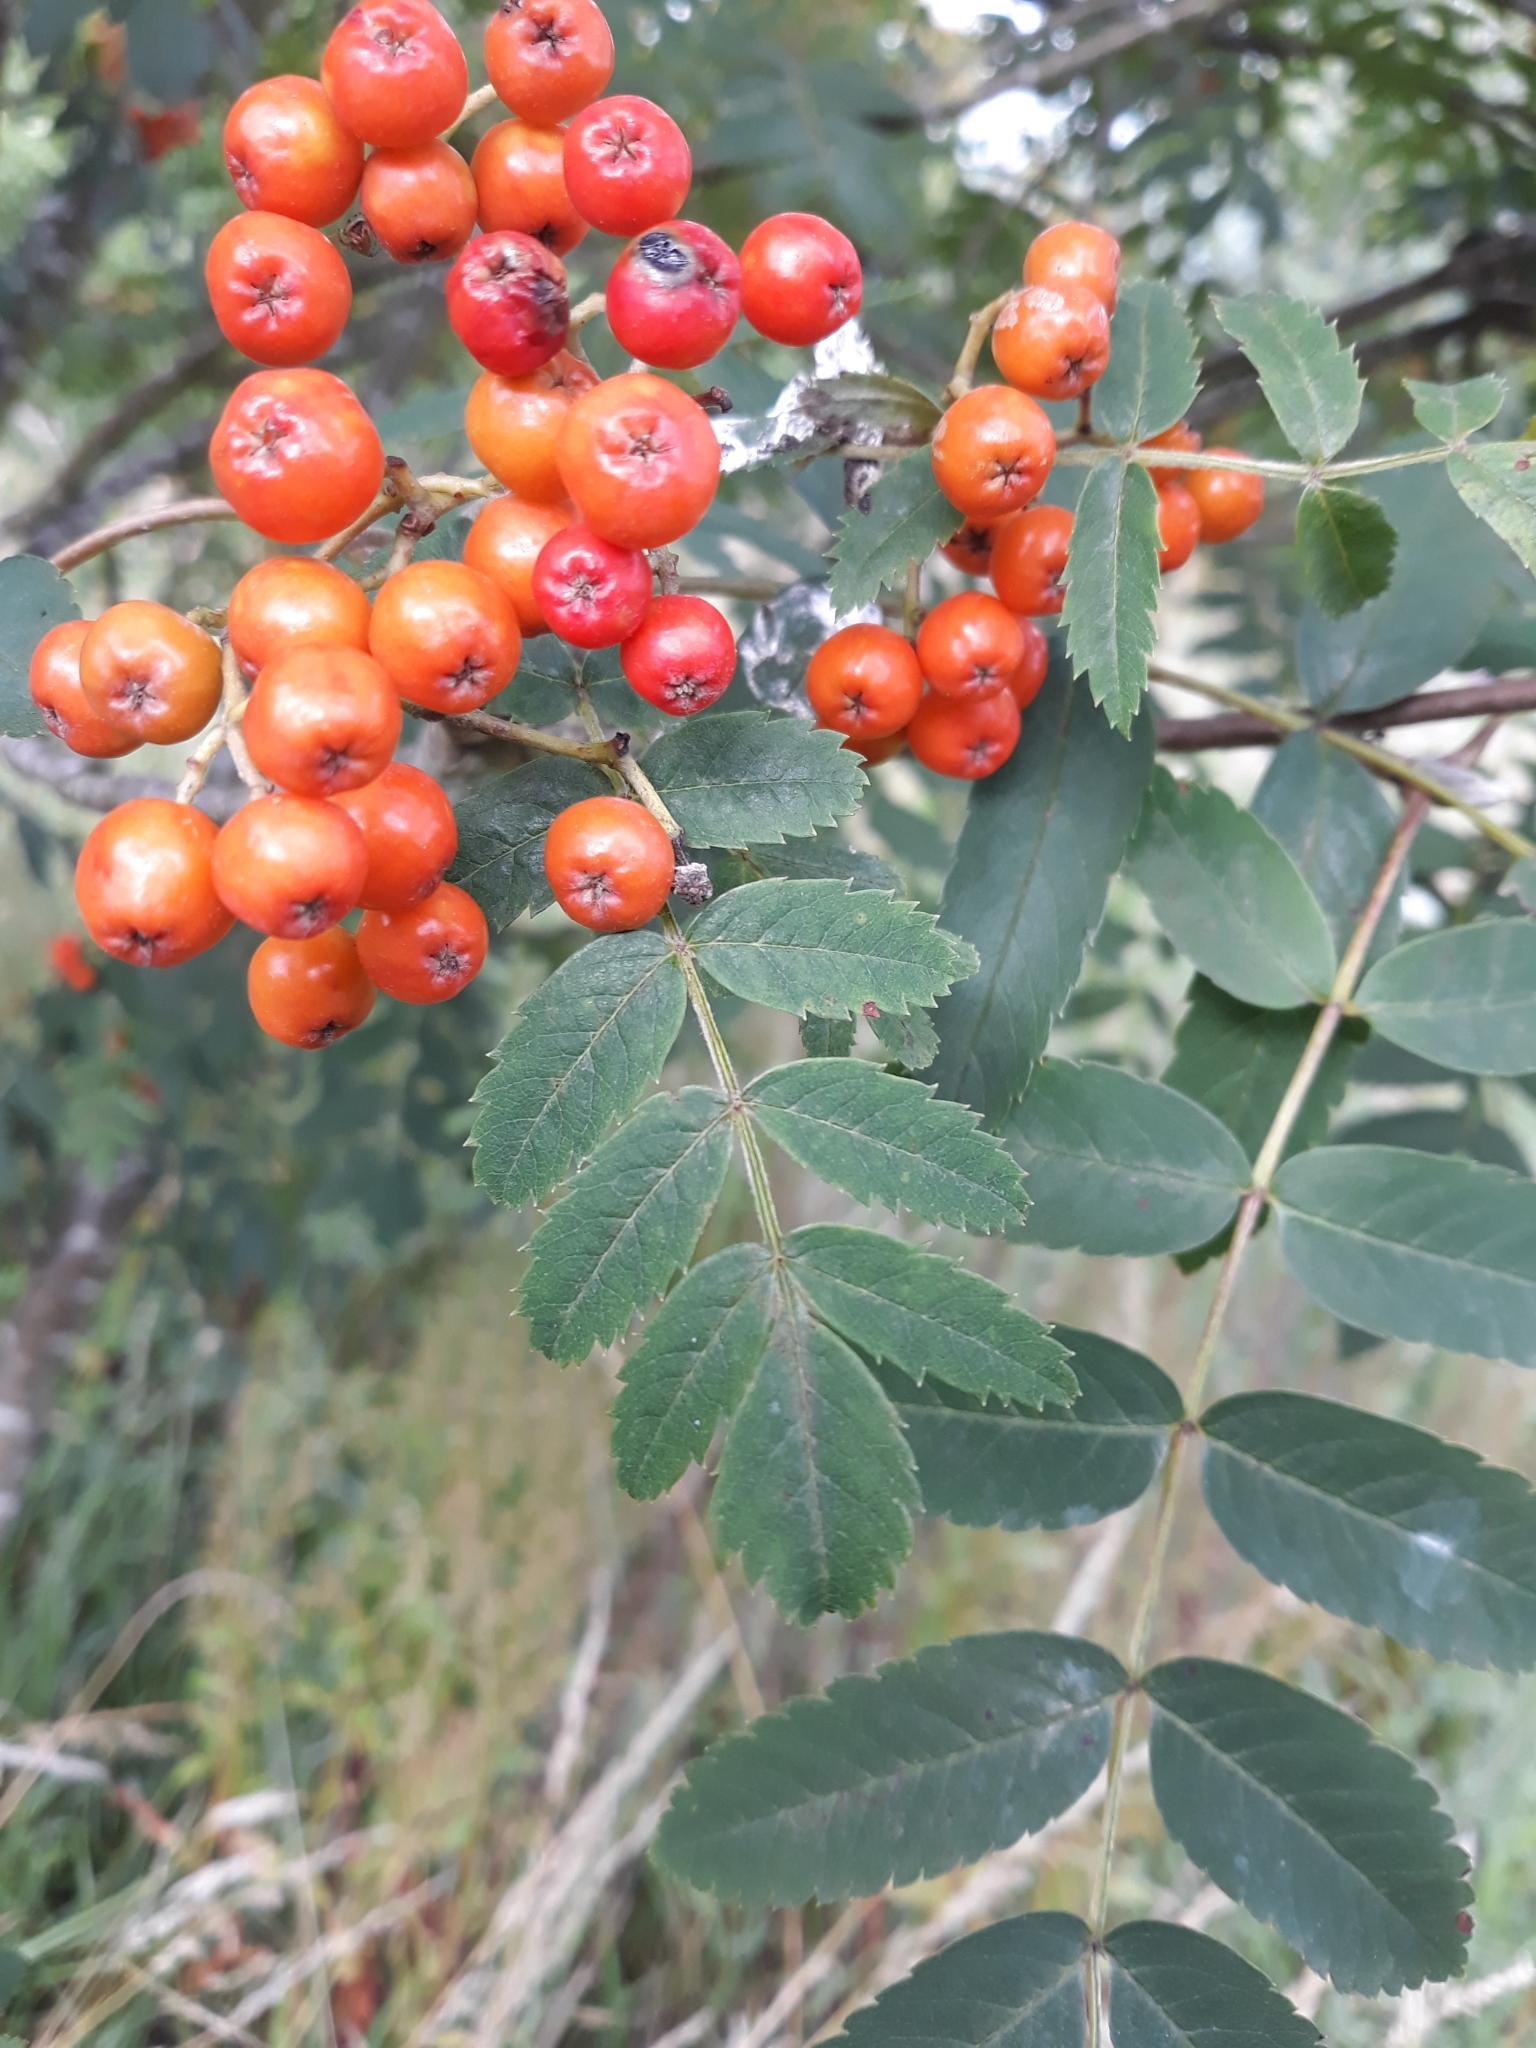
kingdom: Plantae
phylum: Tracheophyta
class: Magnoliopsida
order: Rosales
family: Rosaceae
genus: Sorbus
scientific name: Sorbus aucuparia
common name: Rowan
